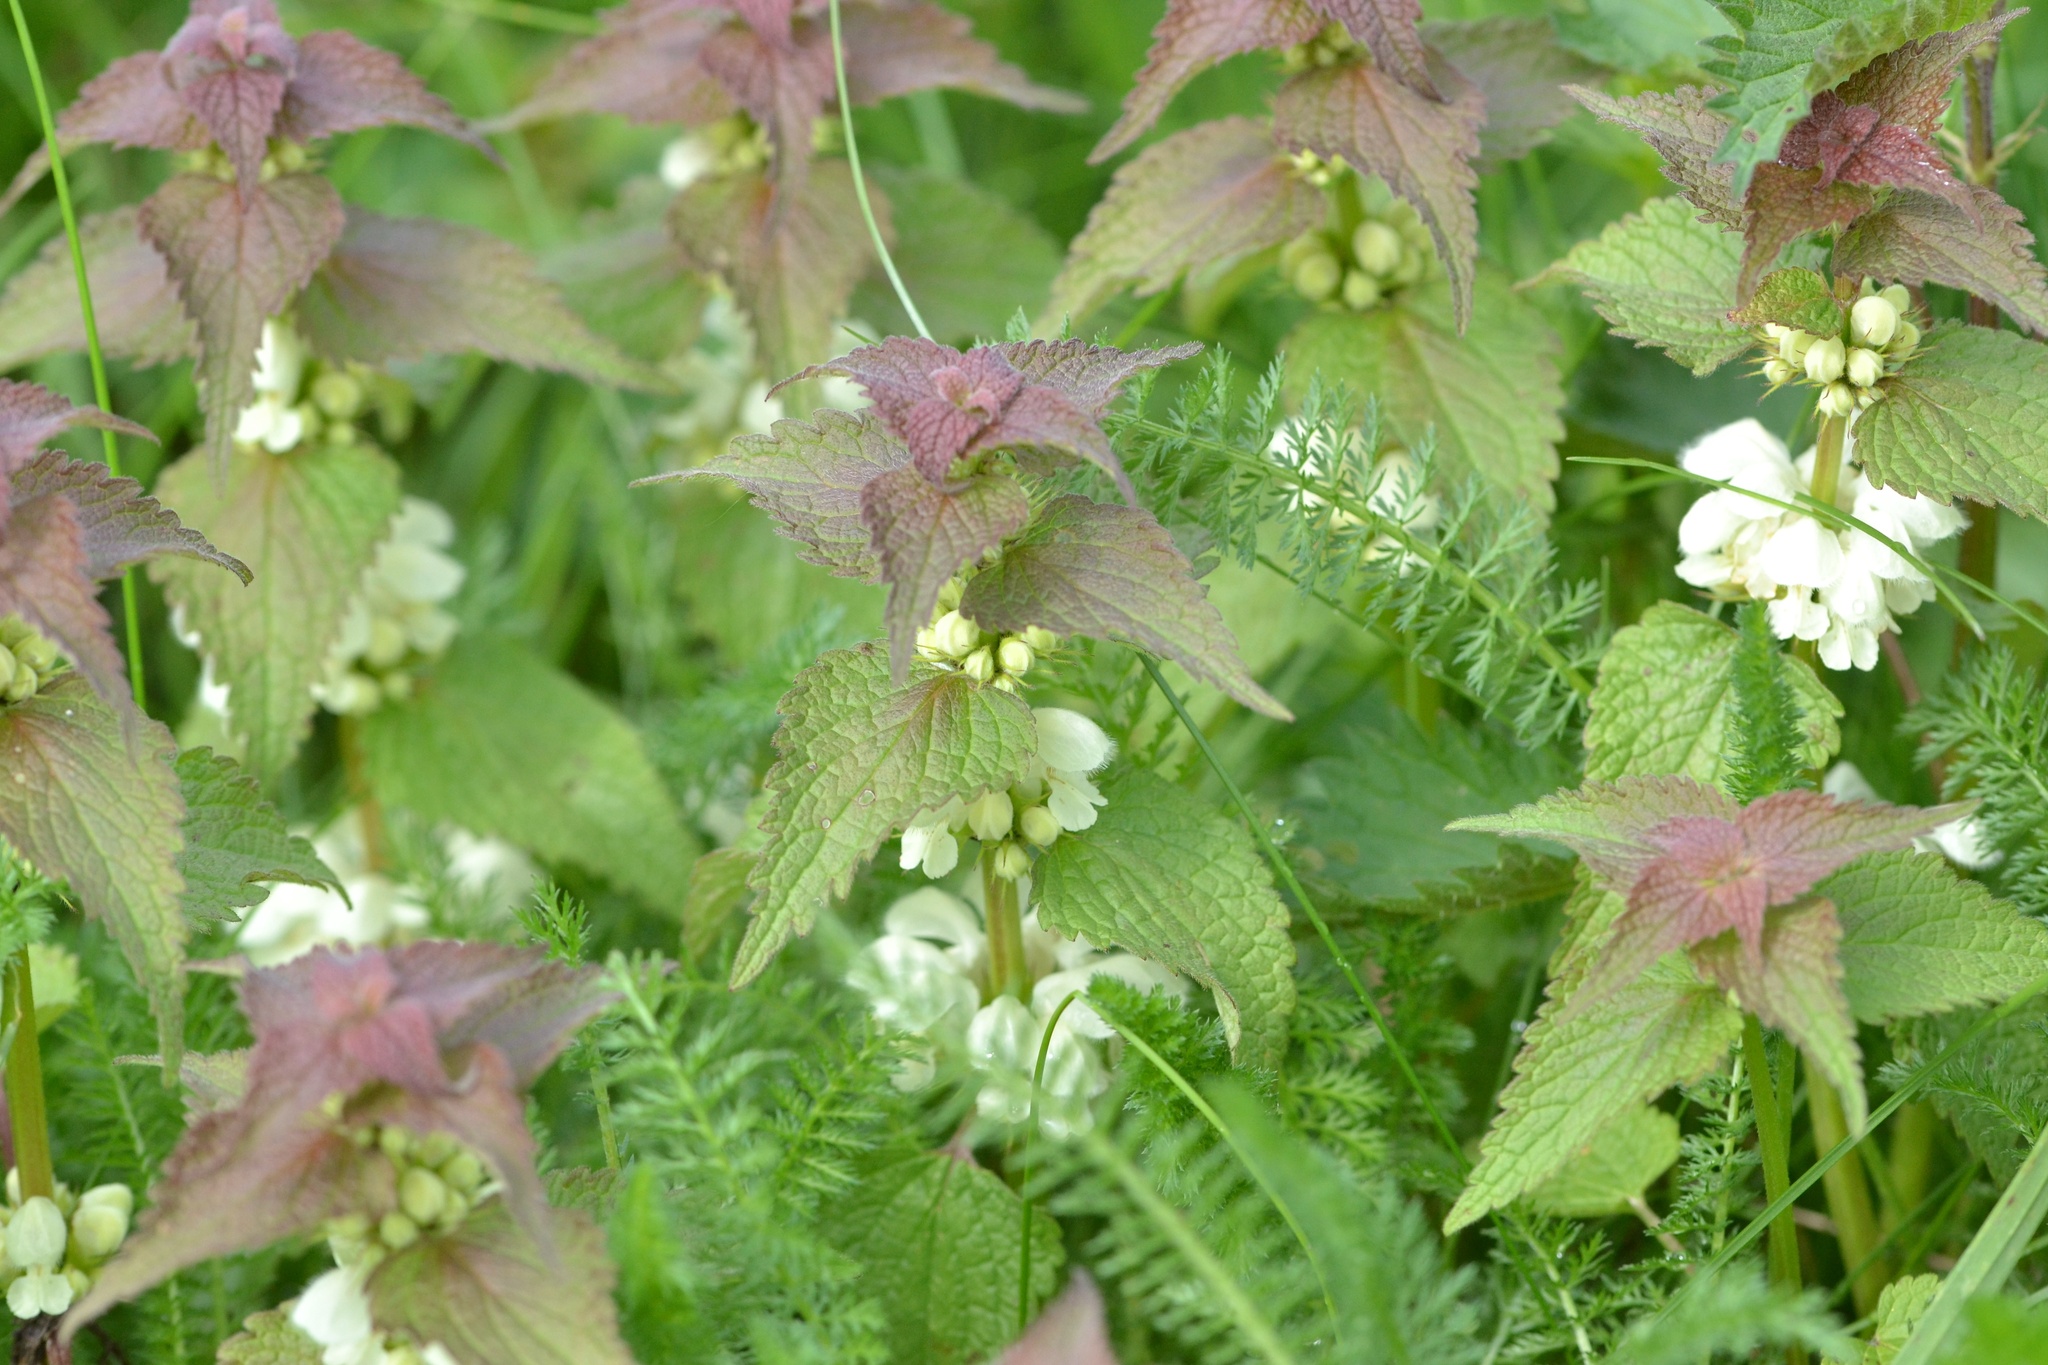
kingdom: Plantae
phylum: Tracheophyta
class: Magnoliopsida
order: Lamiales
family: Lamiaceae
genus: Lamium
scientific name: Lamium album
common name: White dead-nettle
